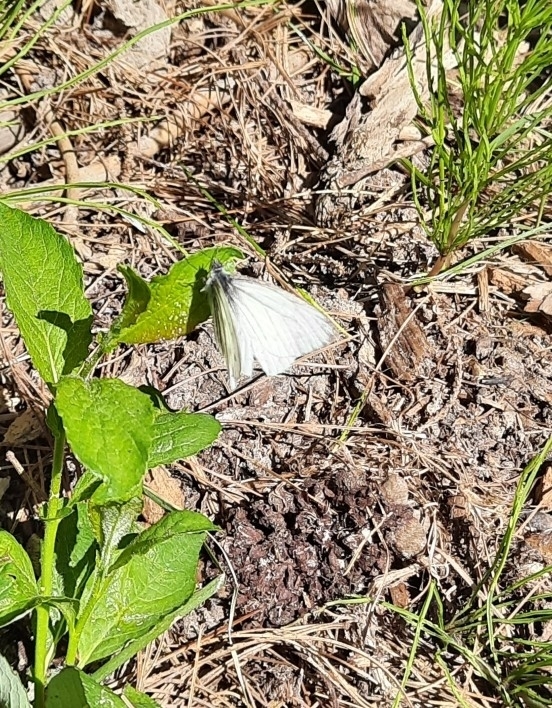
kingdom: Animalia
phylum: Arthropoda
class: Insecta
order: Lepidoptera
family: Pieridae
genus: Pieris
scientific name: Pieris napi
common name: Green-veined white
